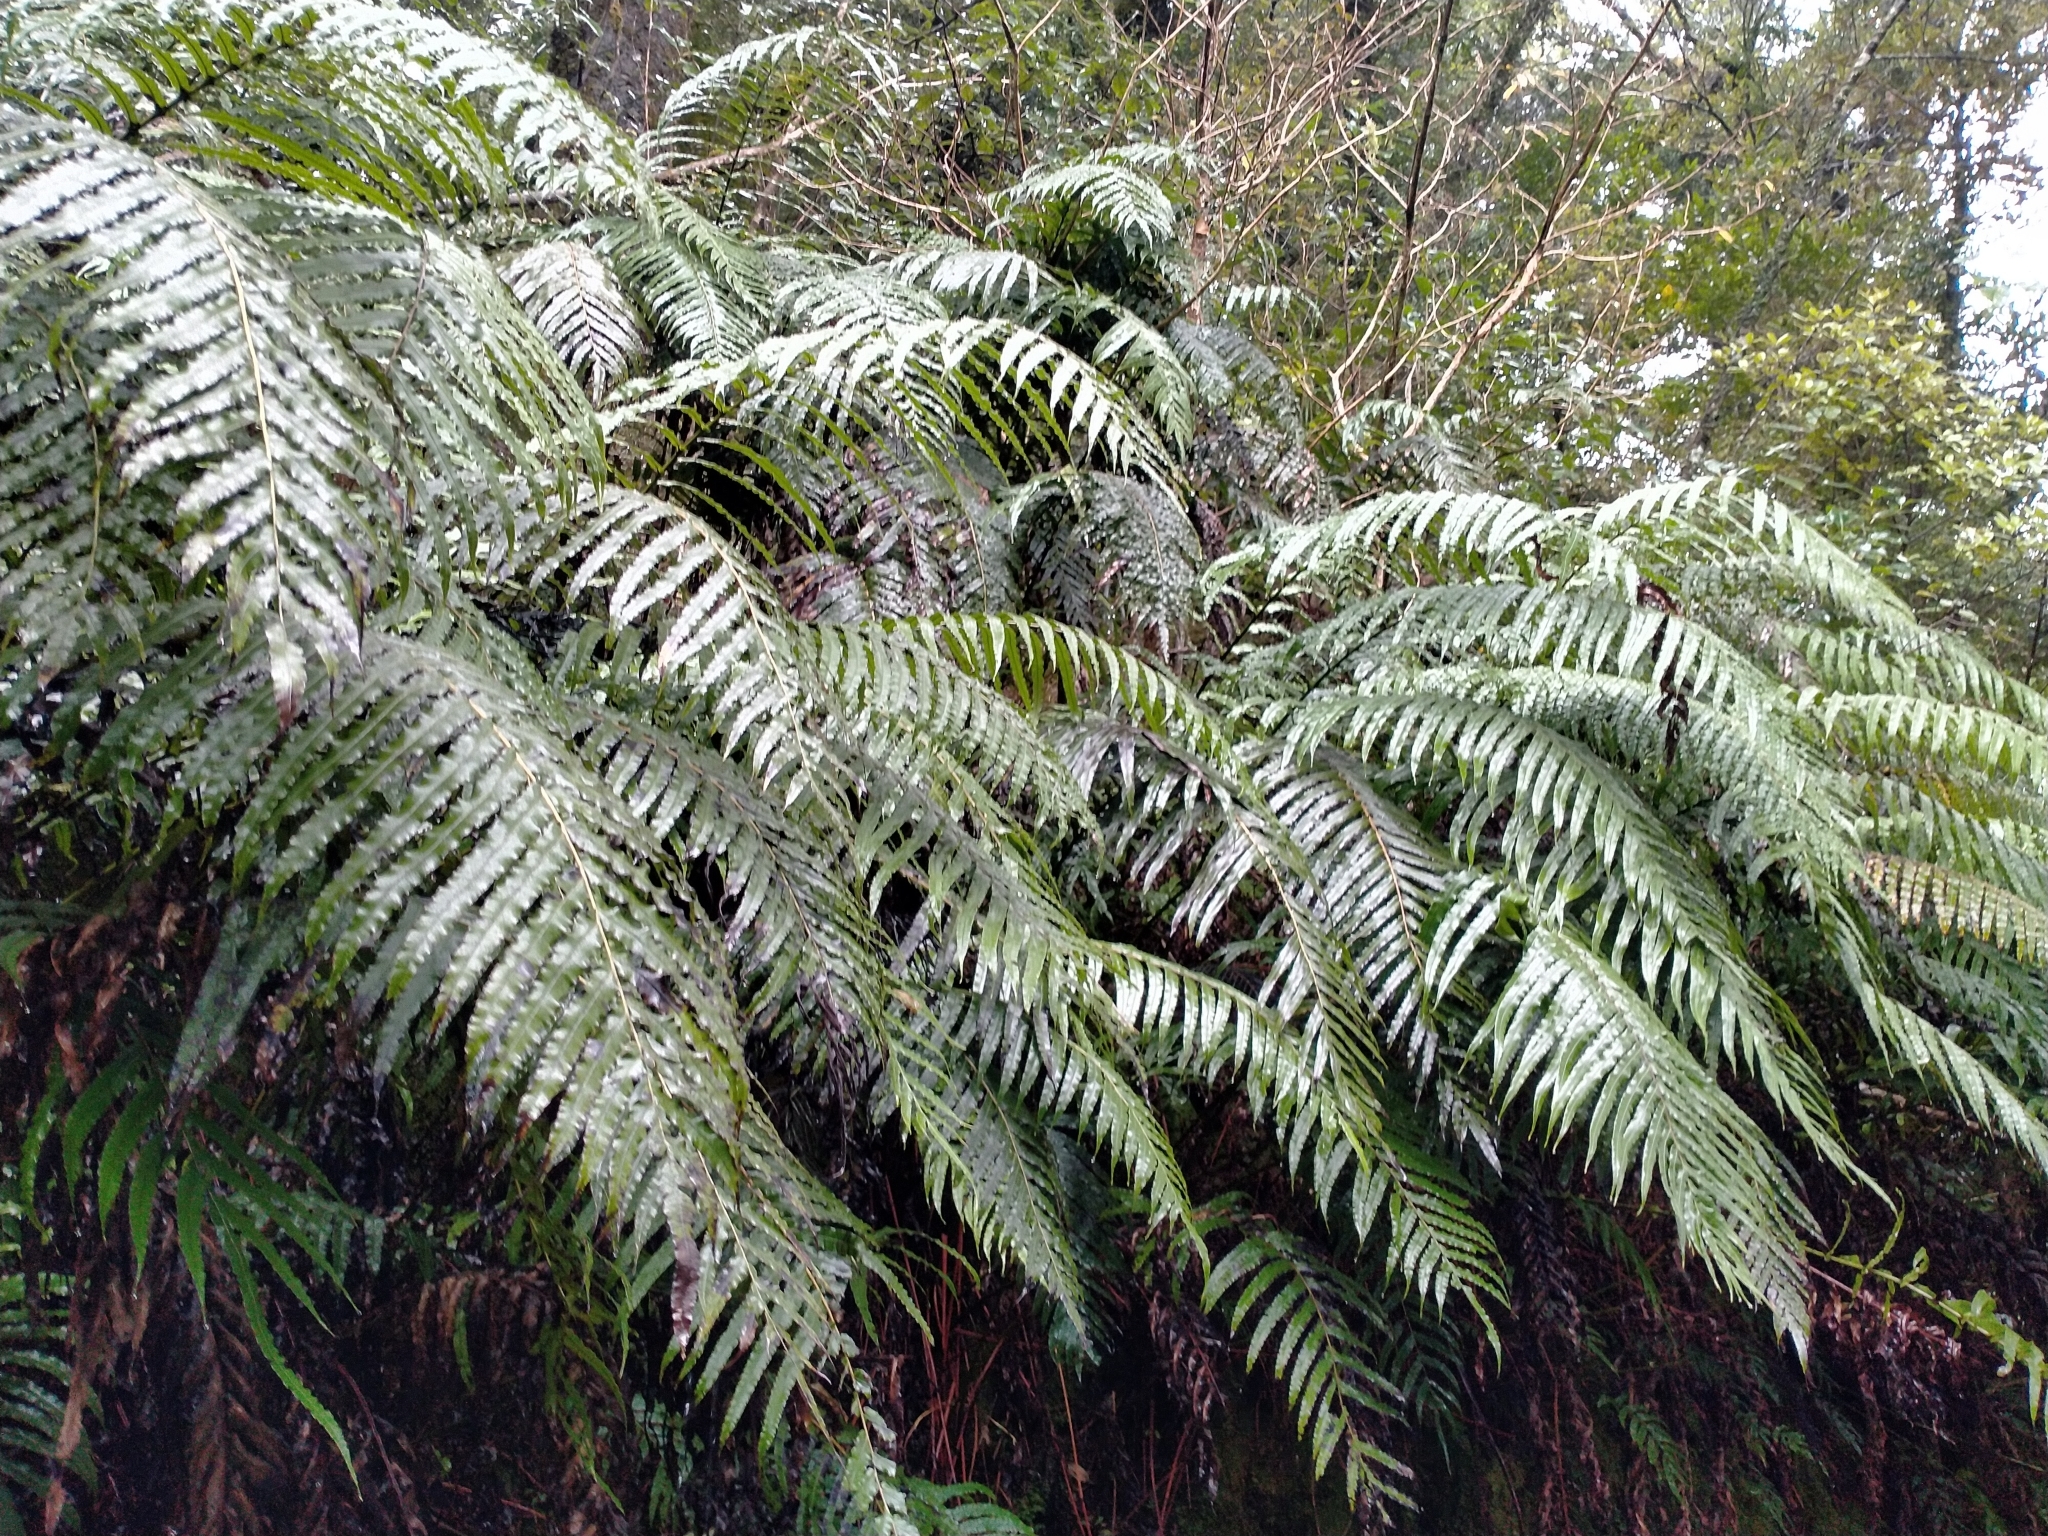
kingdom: Plantae
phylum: Tracheophyta
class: Polypodiopsida
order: Polypodiales
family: Blechnaceae
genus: Parablechnum
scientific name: Parablechnum novae-zelandiae
